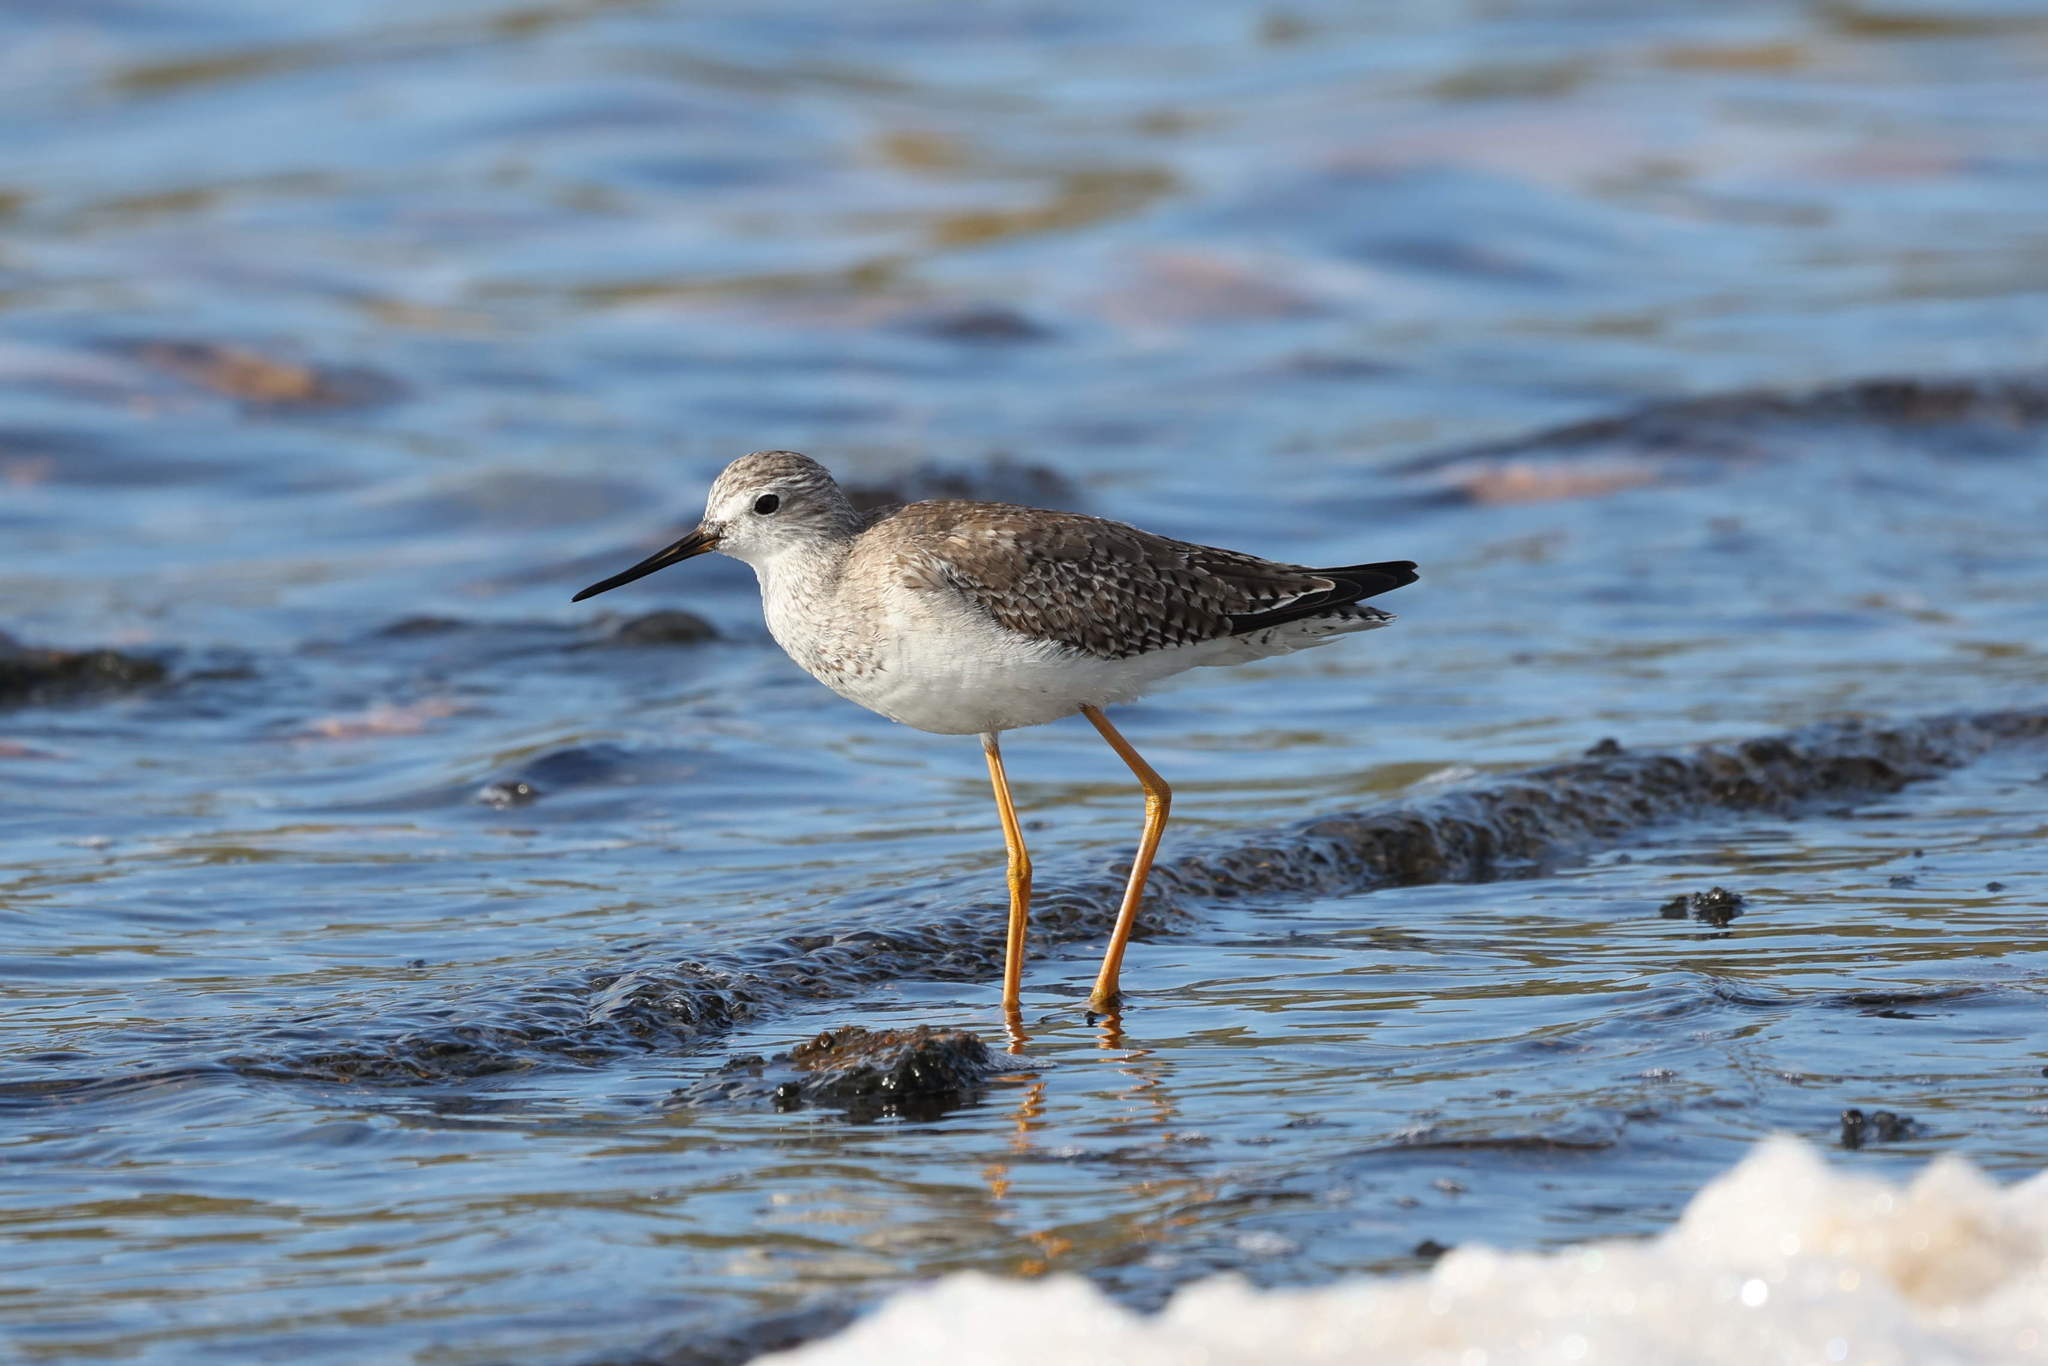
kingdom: Animalia
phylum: Chordata
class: Aves
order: Charadriiformes
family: Scolopacidae
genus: Tringa
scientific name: Tringa flavipes
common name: Lesser yellowlegs
